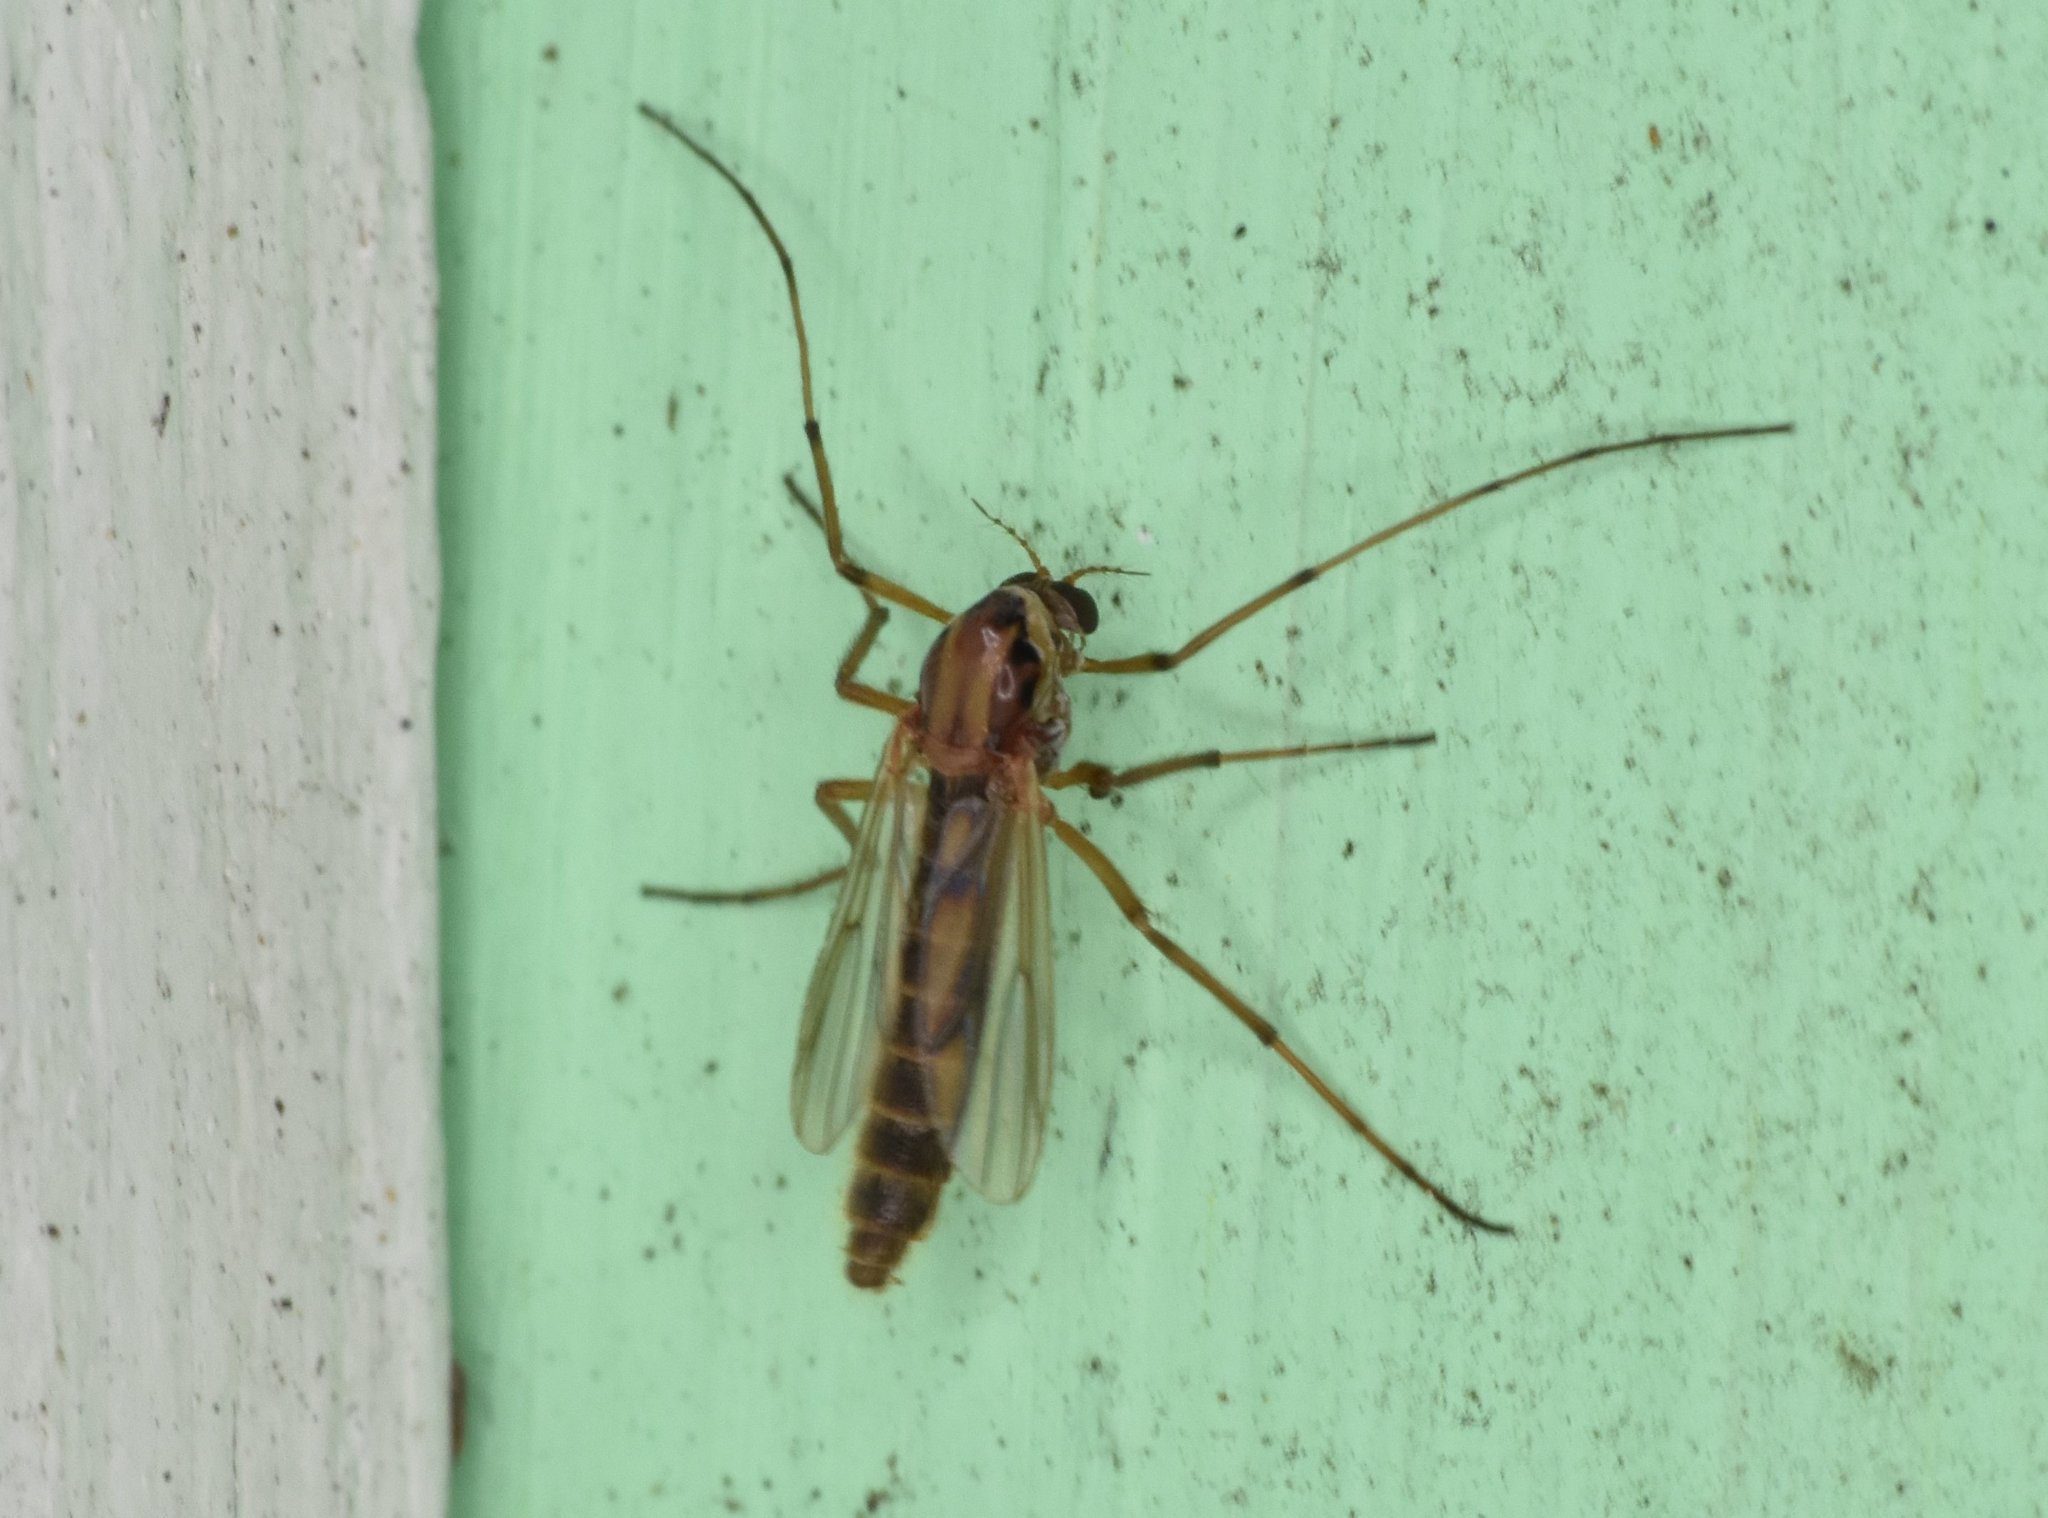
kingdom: Animalia
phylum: Arthropoda
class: Insecta
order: Diptera
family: Chironomidae
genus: Goeldichironomus
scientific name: Goeldichironomus carus
